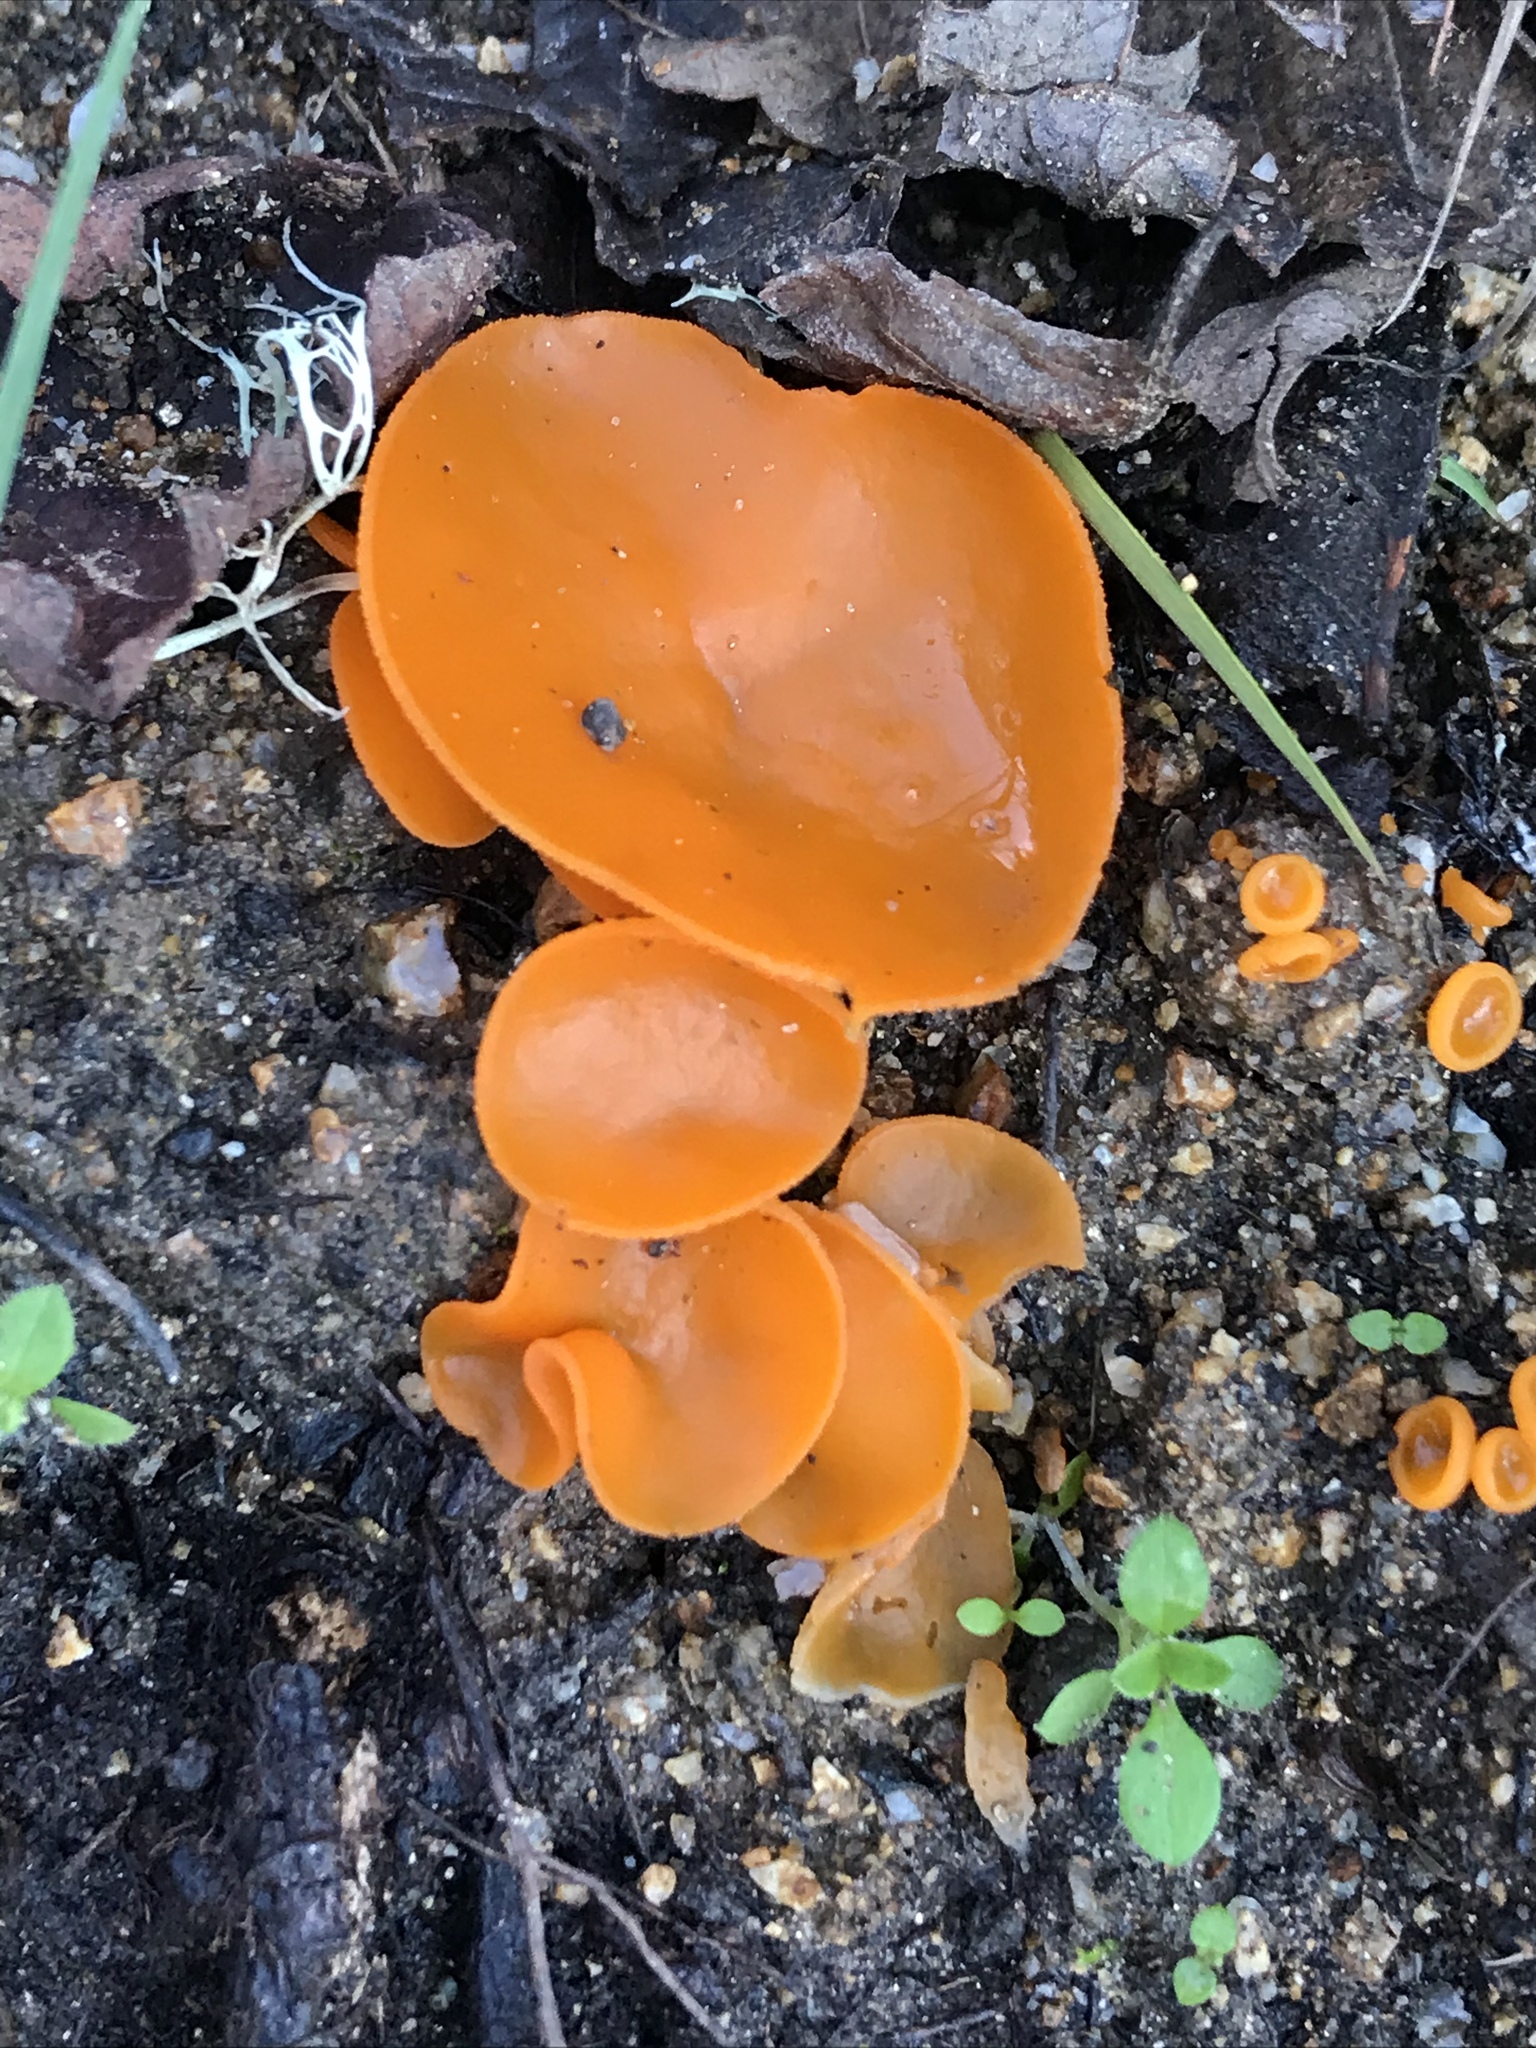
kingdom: Fungi
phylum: Ascomycota
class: Pezizomycetes
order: Pezizales
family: Pyronemataceae
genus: Aleuria
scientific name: Aleuria aurantia
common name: Orange peel fungus
